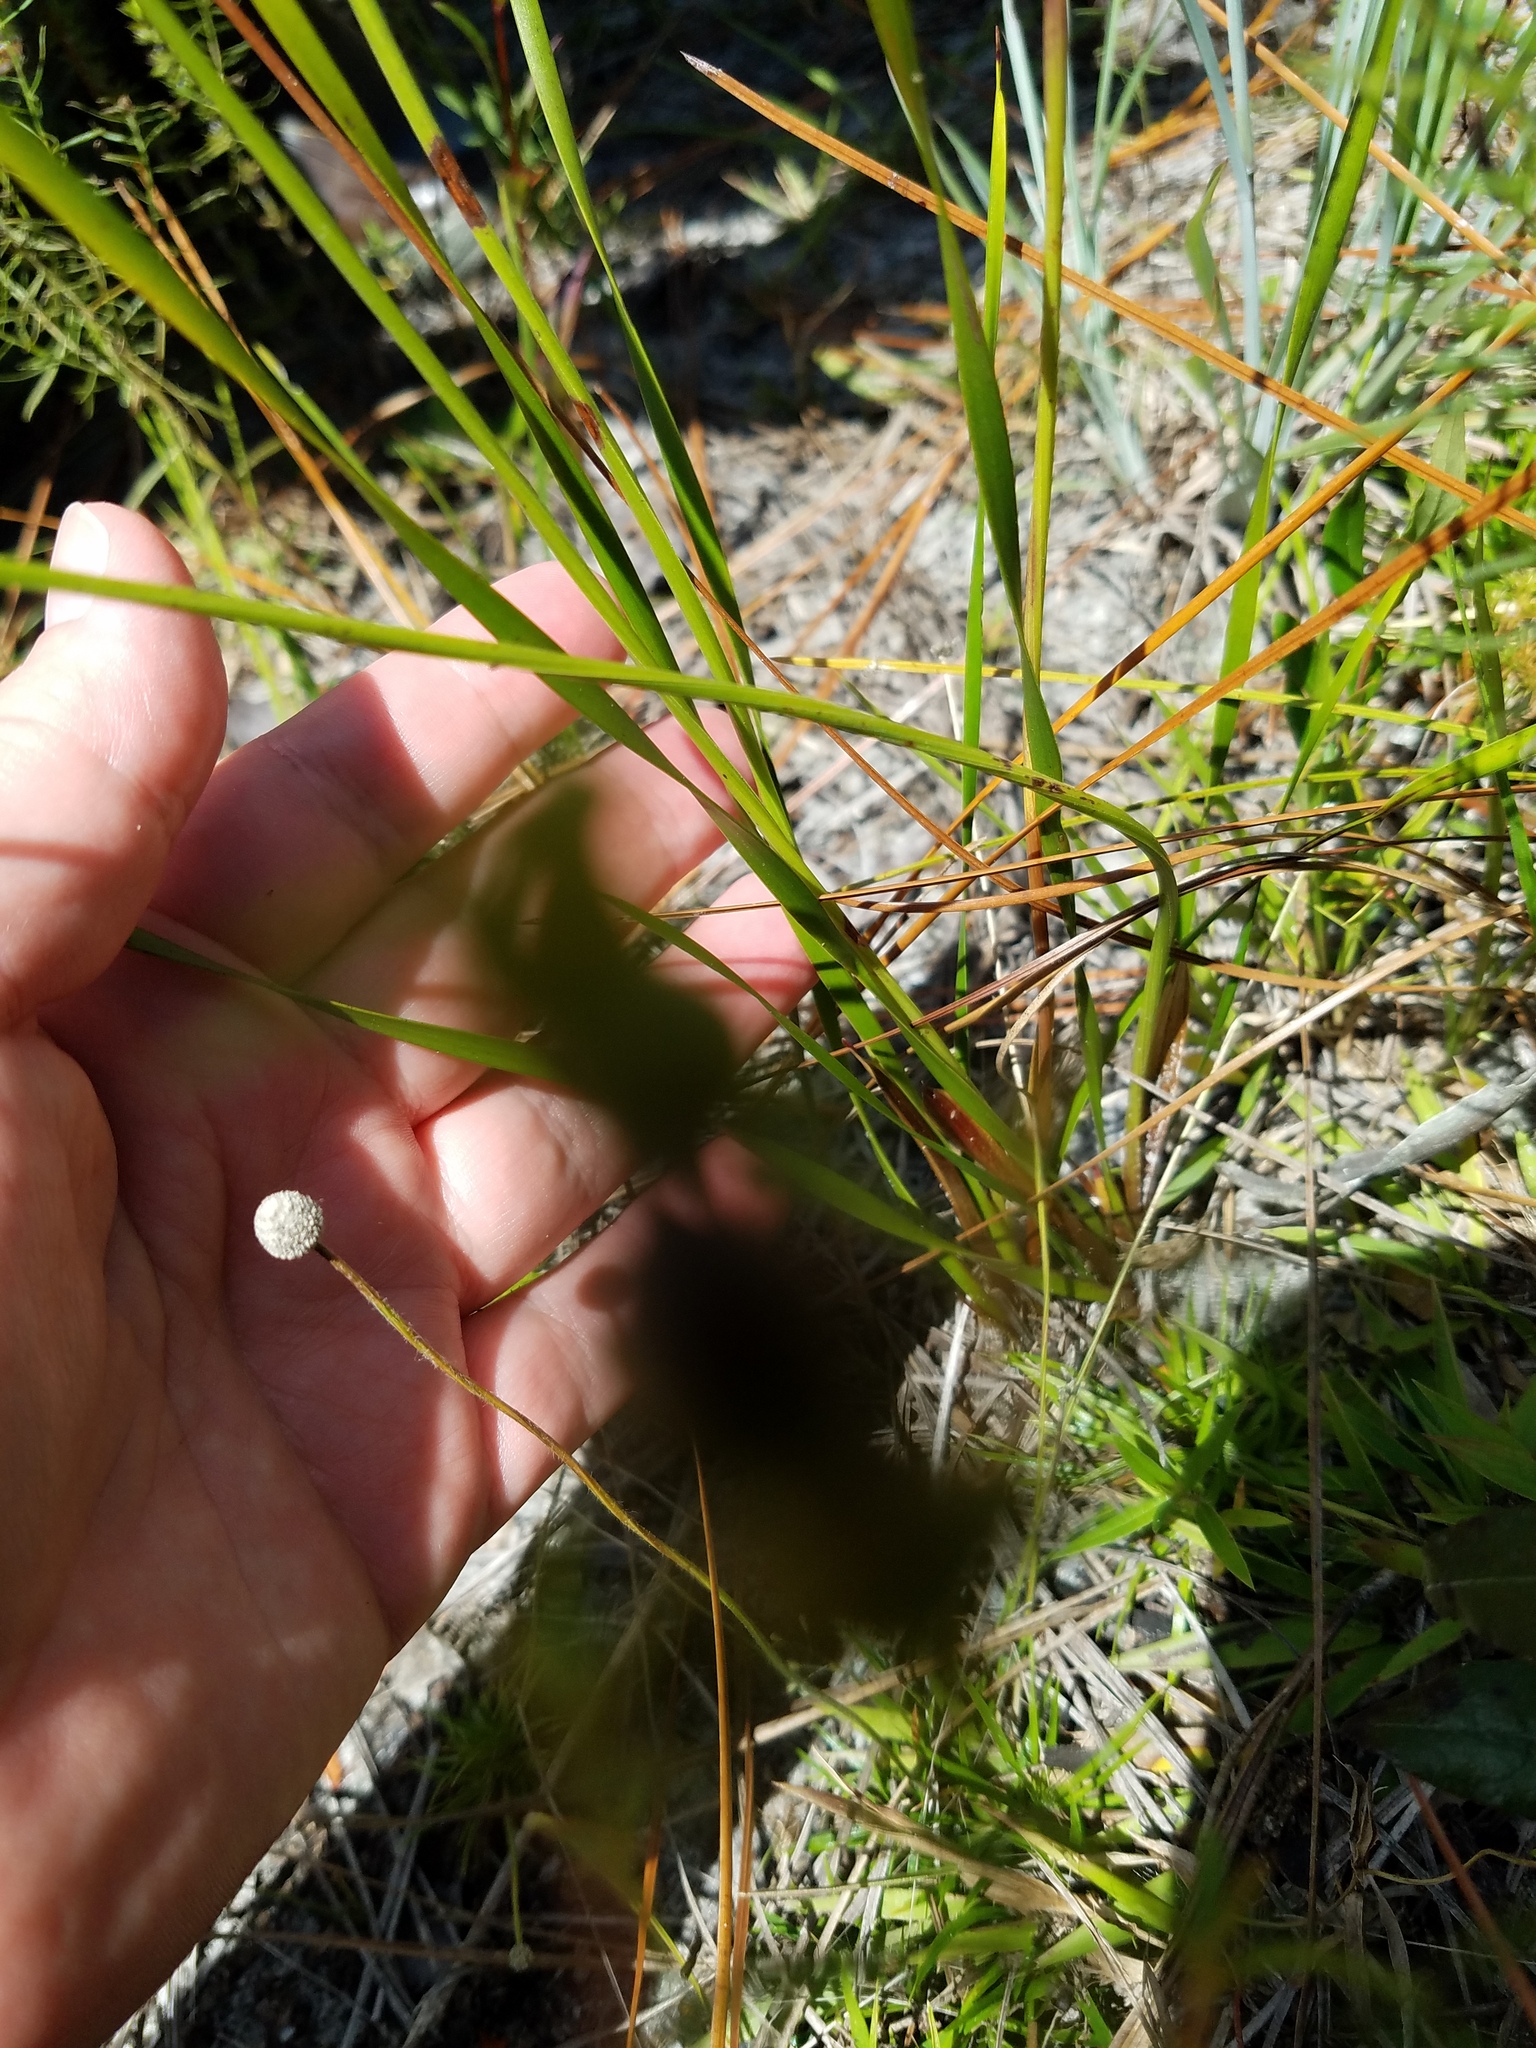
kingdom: Plantae
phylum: Tracheophyta
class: Liliopsida
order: Poales
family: Xyridaceae
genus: Xyris
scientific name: Xyris caroliniana
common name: Carolina yellow-eyed-grass
